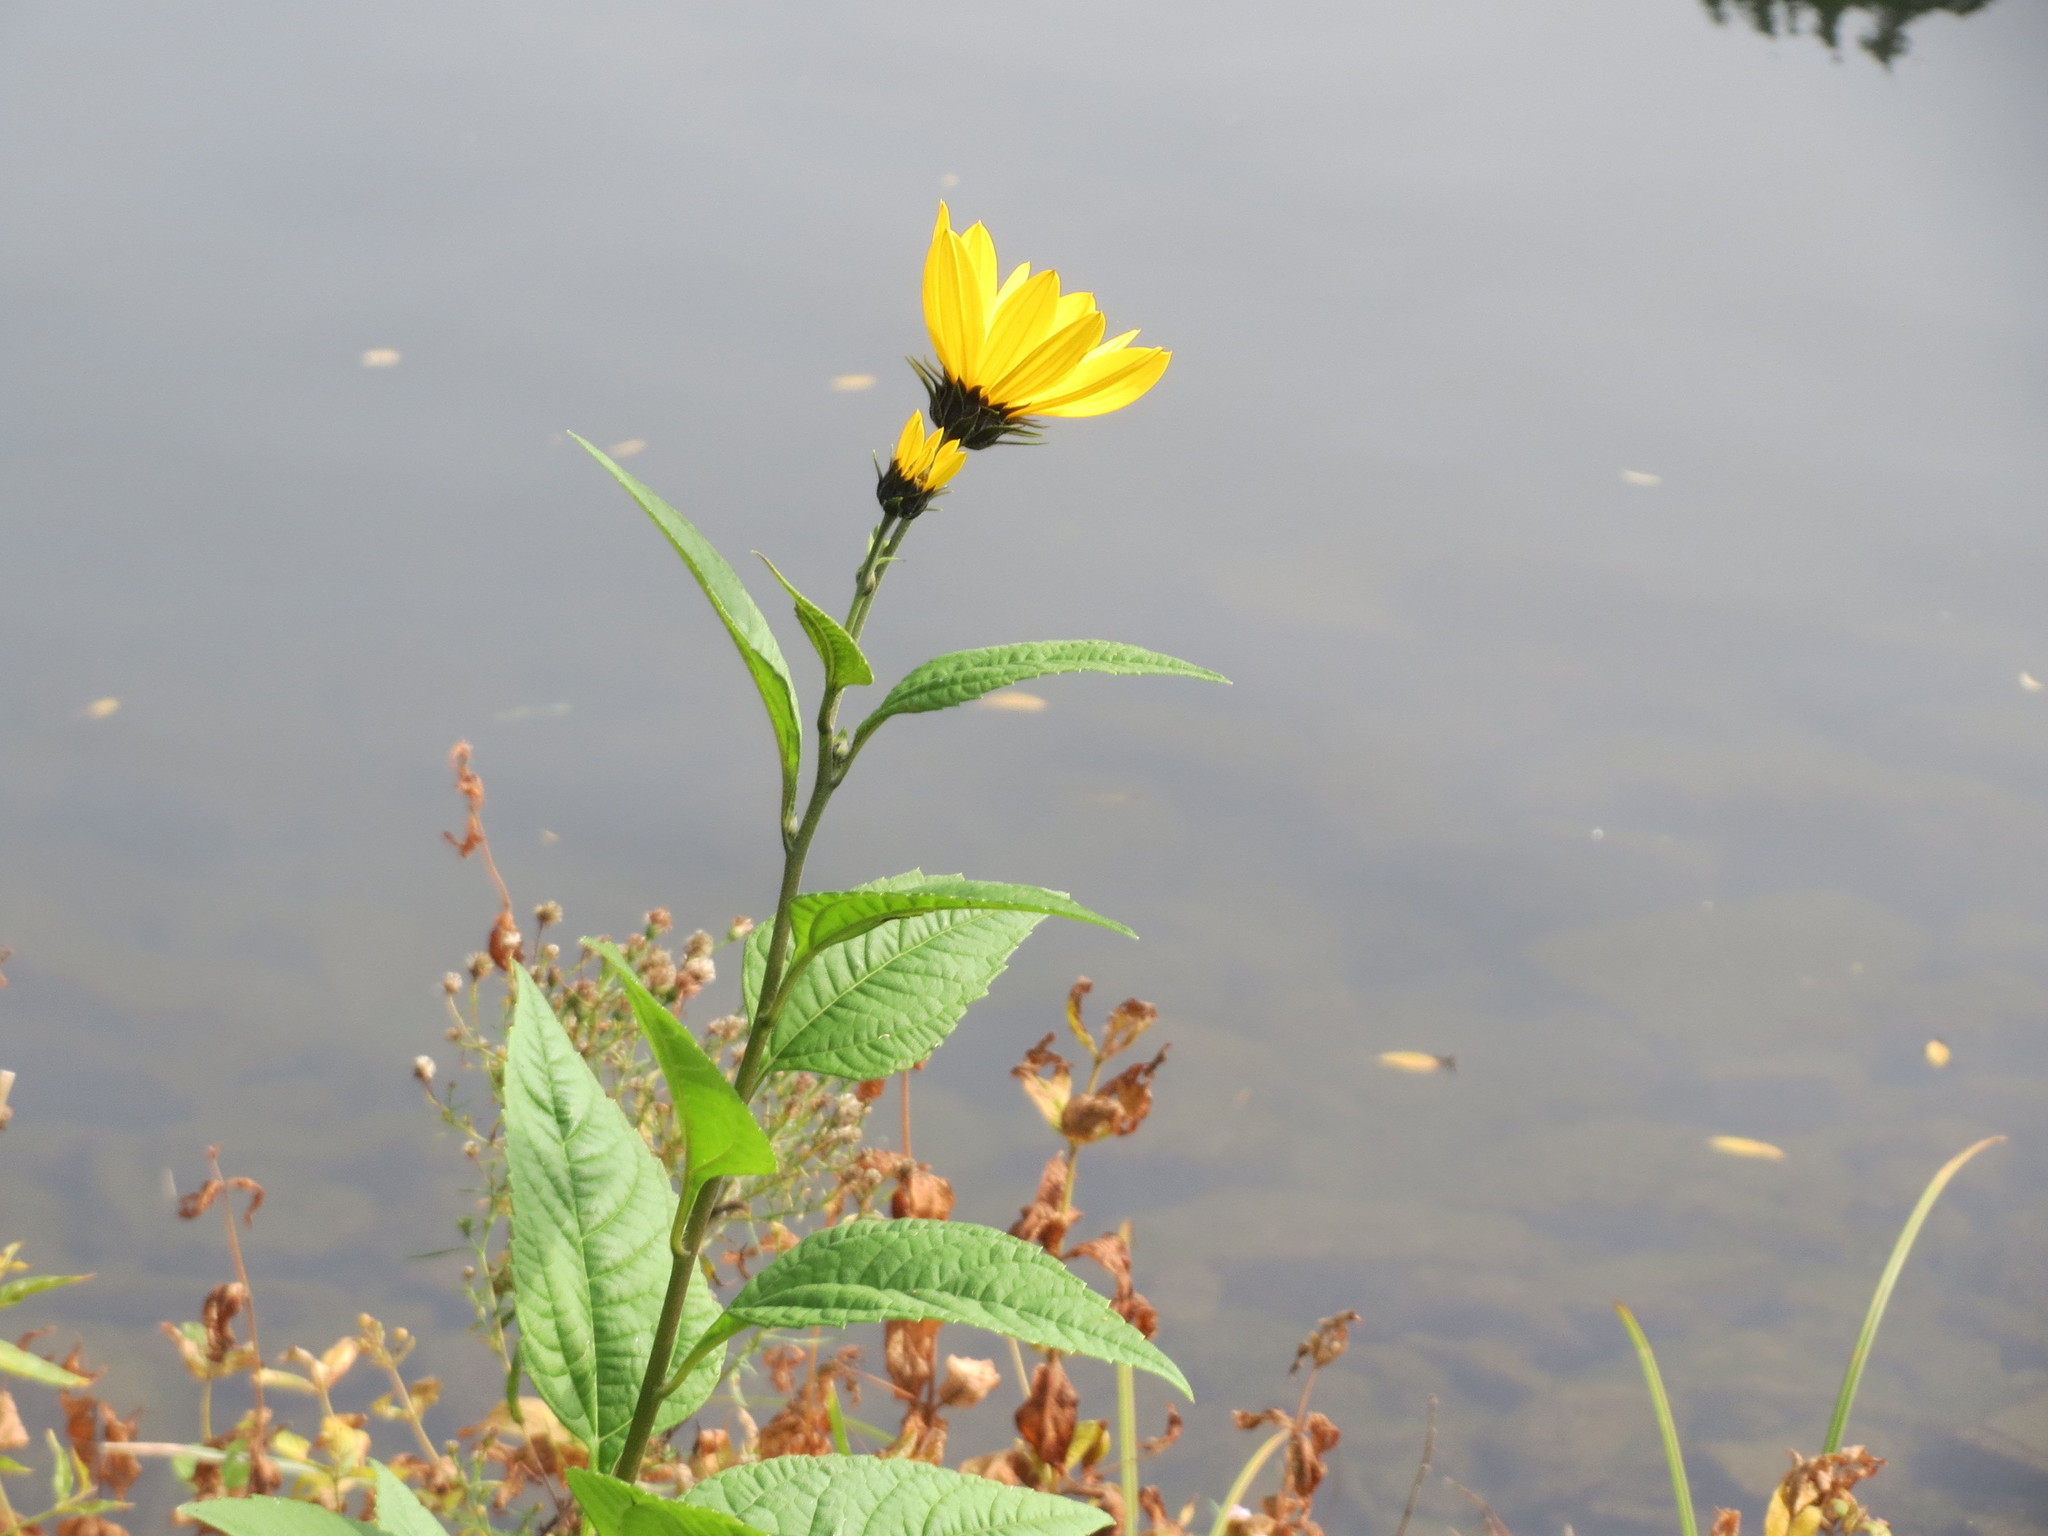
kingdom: Plantae
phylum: Tracheophyta
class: Magnoliopsida
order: Asterales
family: Asteraceae
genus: Helianthus
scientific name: Helianthus tuberosus
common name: Jerusalem artichoke
